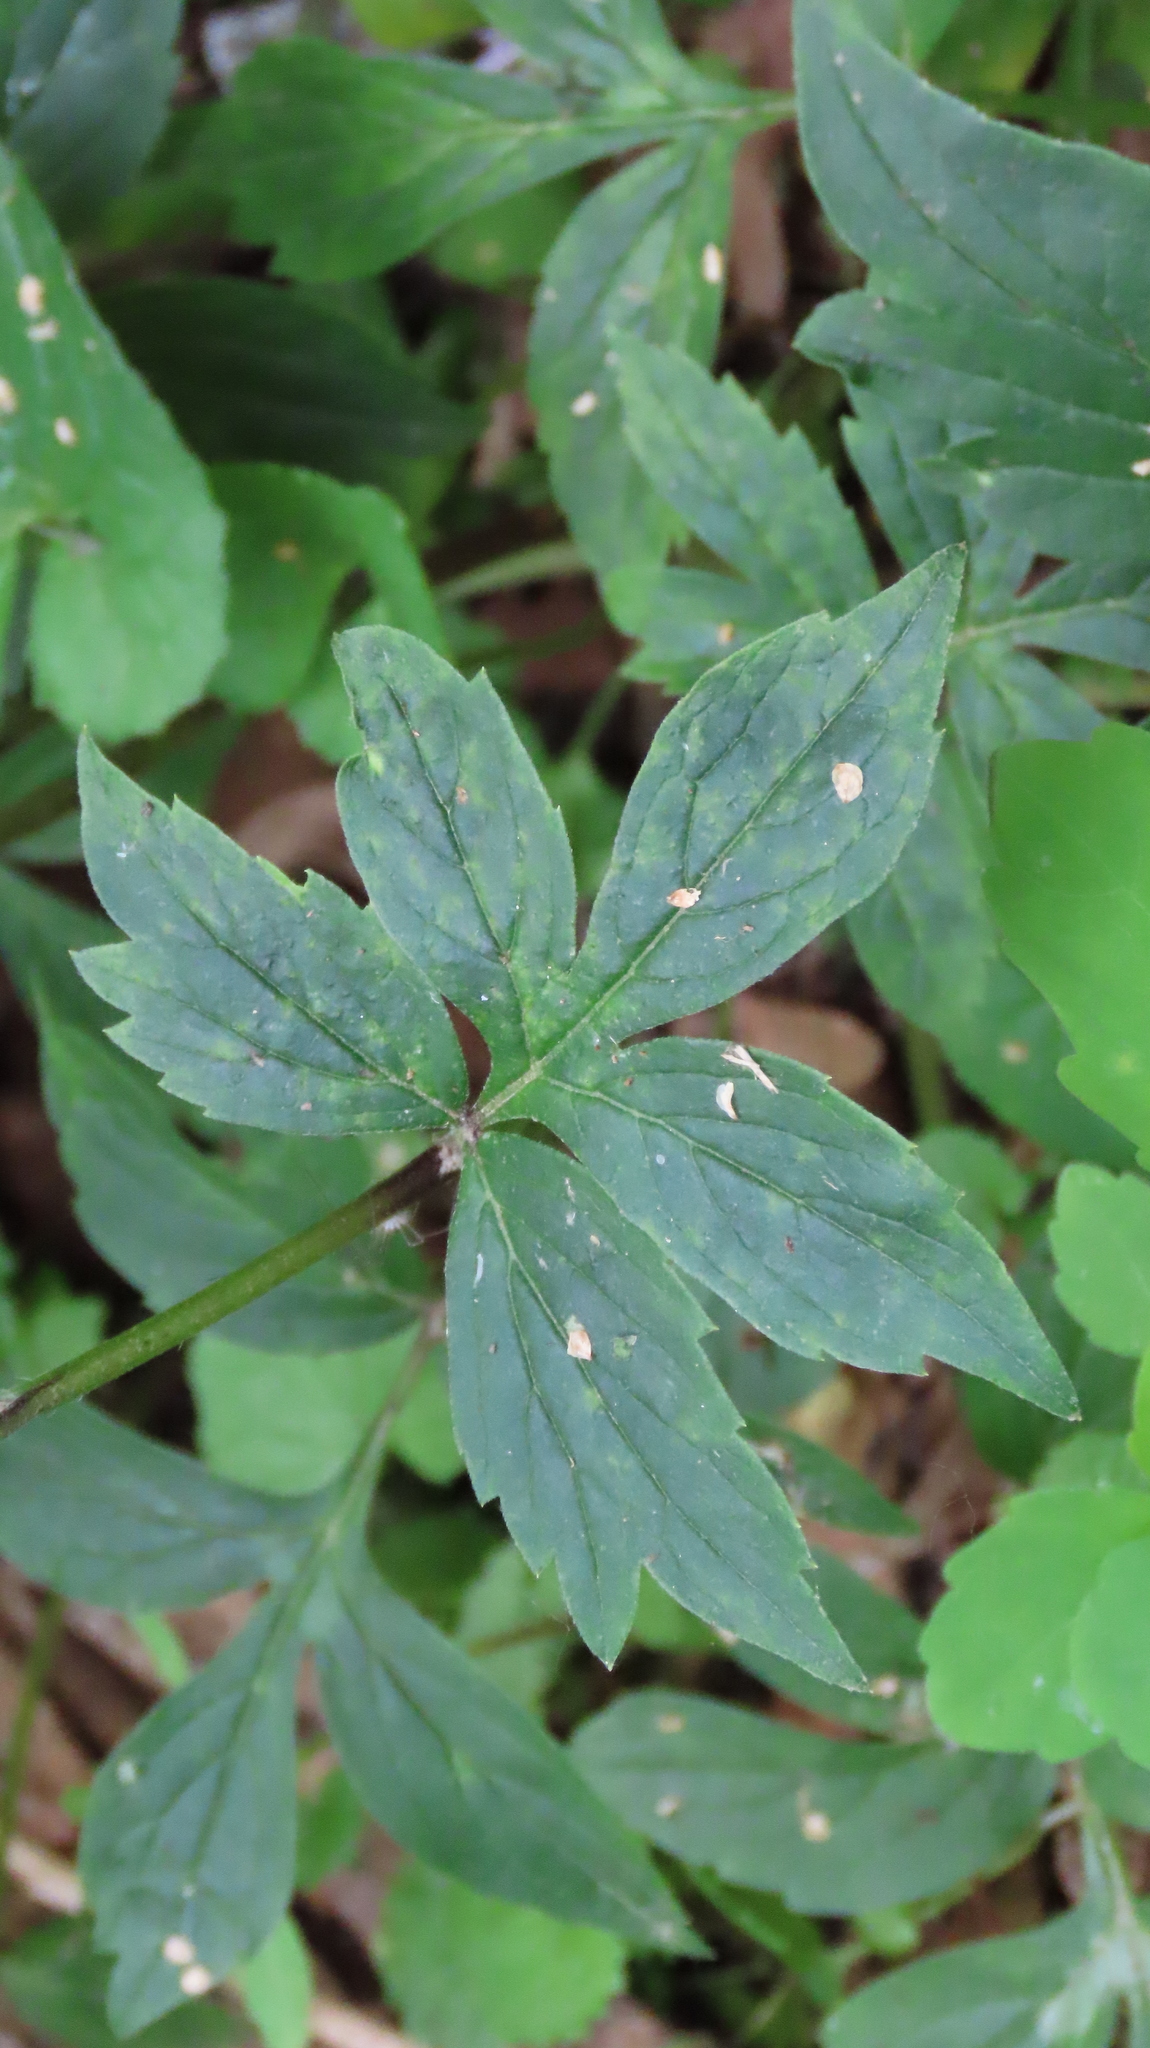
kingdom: Plantae
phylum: Tracheophyta
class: Magnoliopsida
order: Boraginales
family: Hydrophyllaceae
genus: Hydrophyllum
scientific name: Hydrophyllum virginianum
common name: Virginia waterleaf
